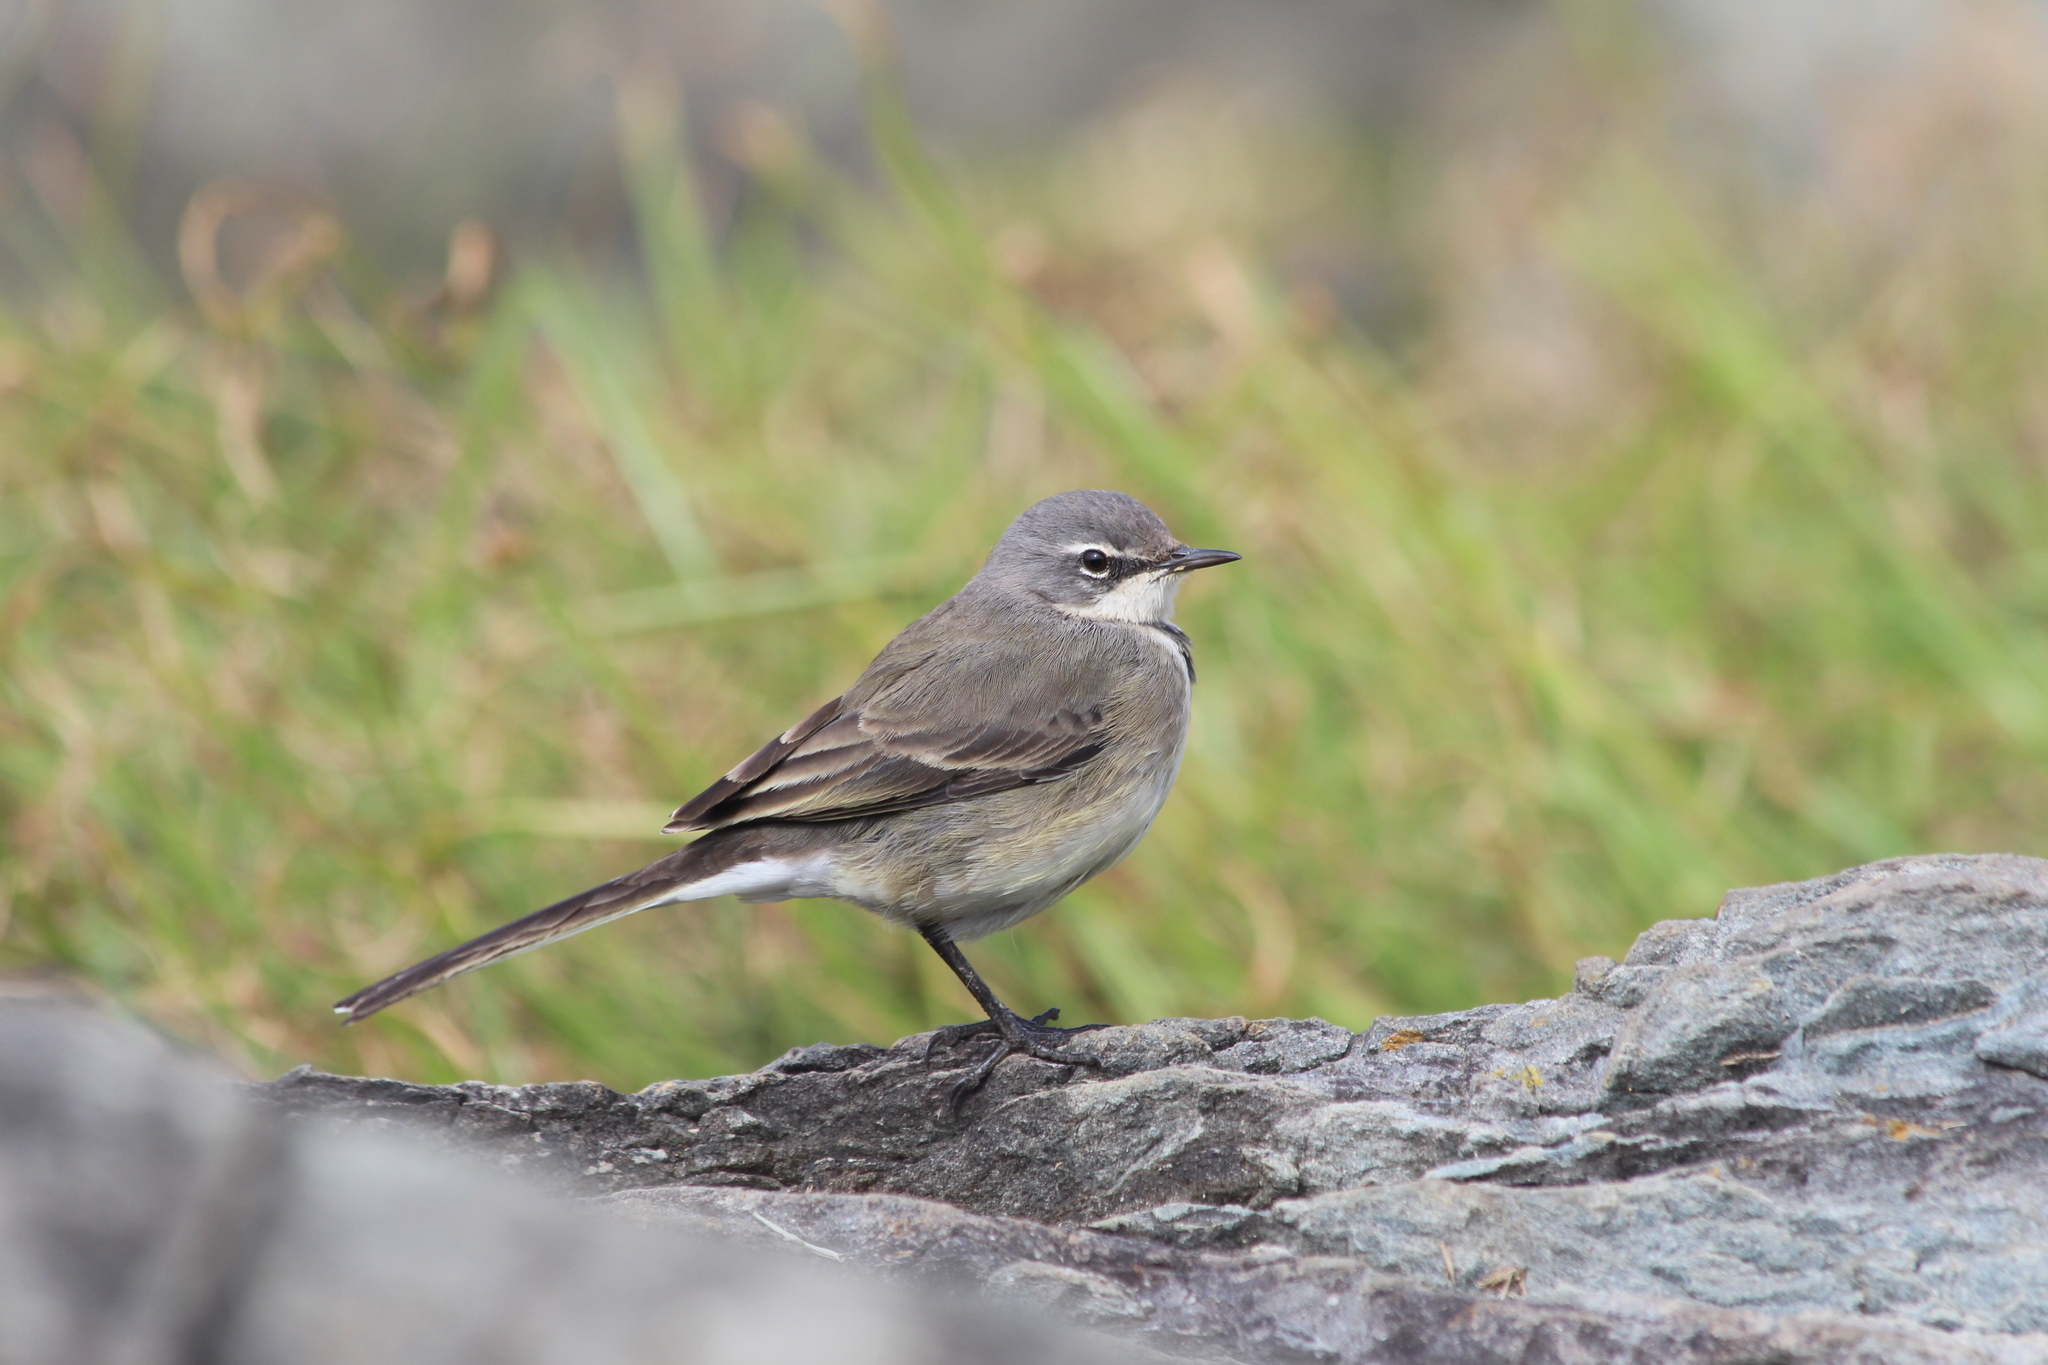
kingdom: Animalia
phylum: Chordata
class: Aves
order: Passeriformes
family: Motacillidae
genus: Motacilla
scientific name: Motacilla capensis
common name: Cape wagtail
